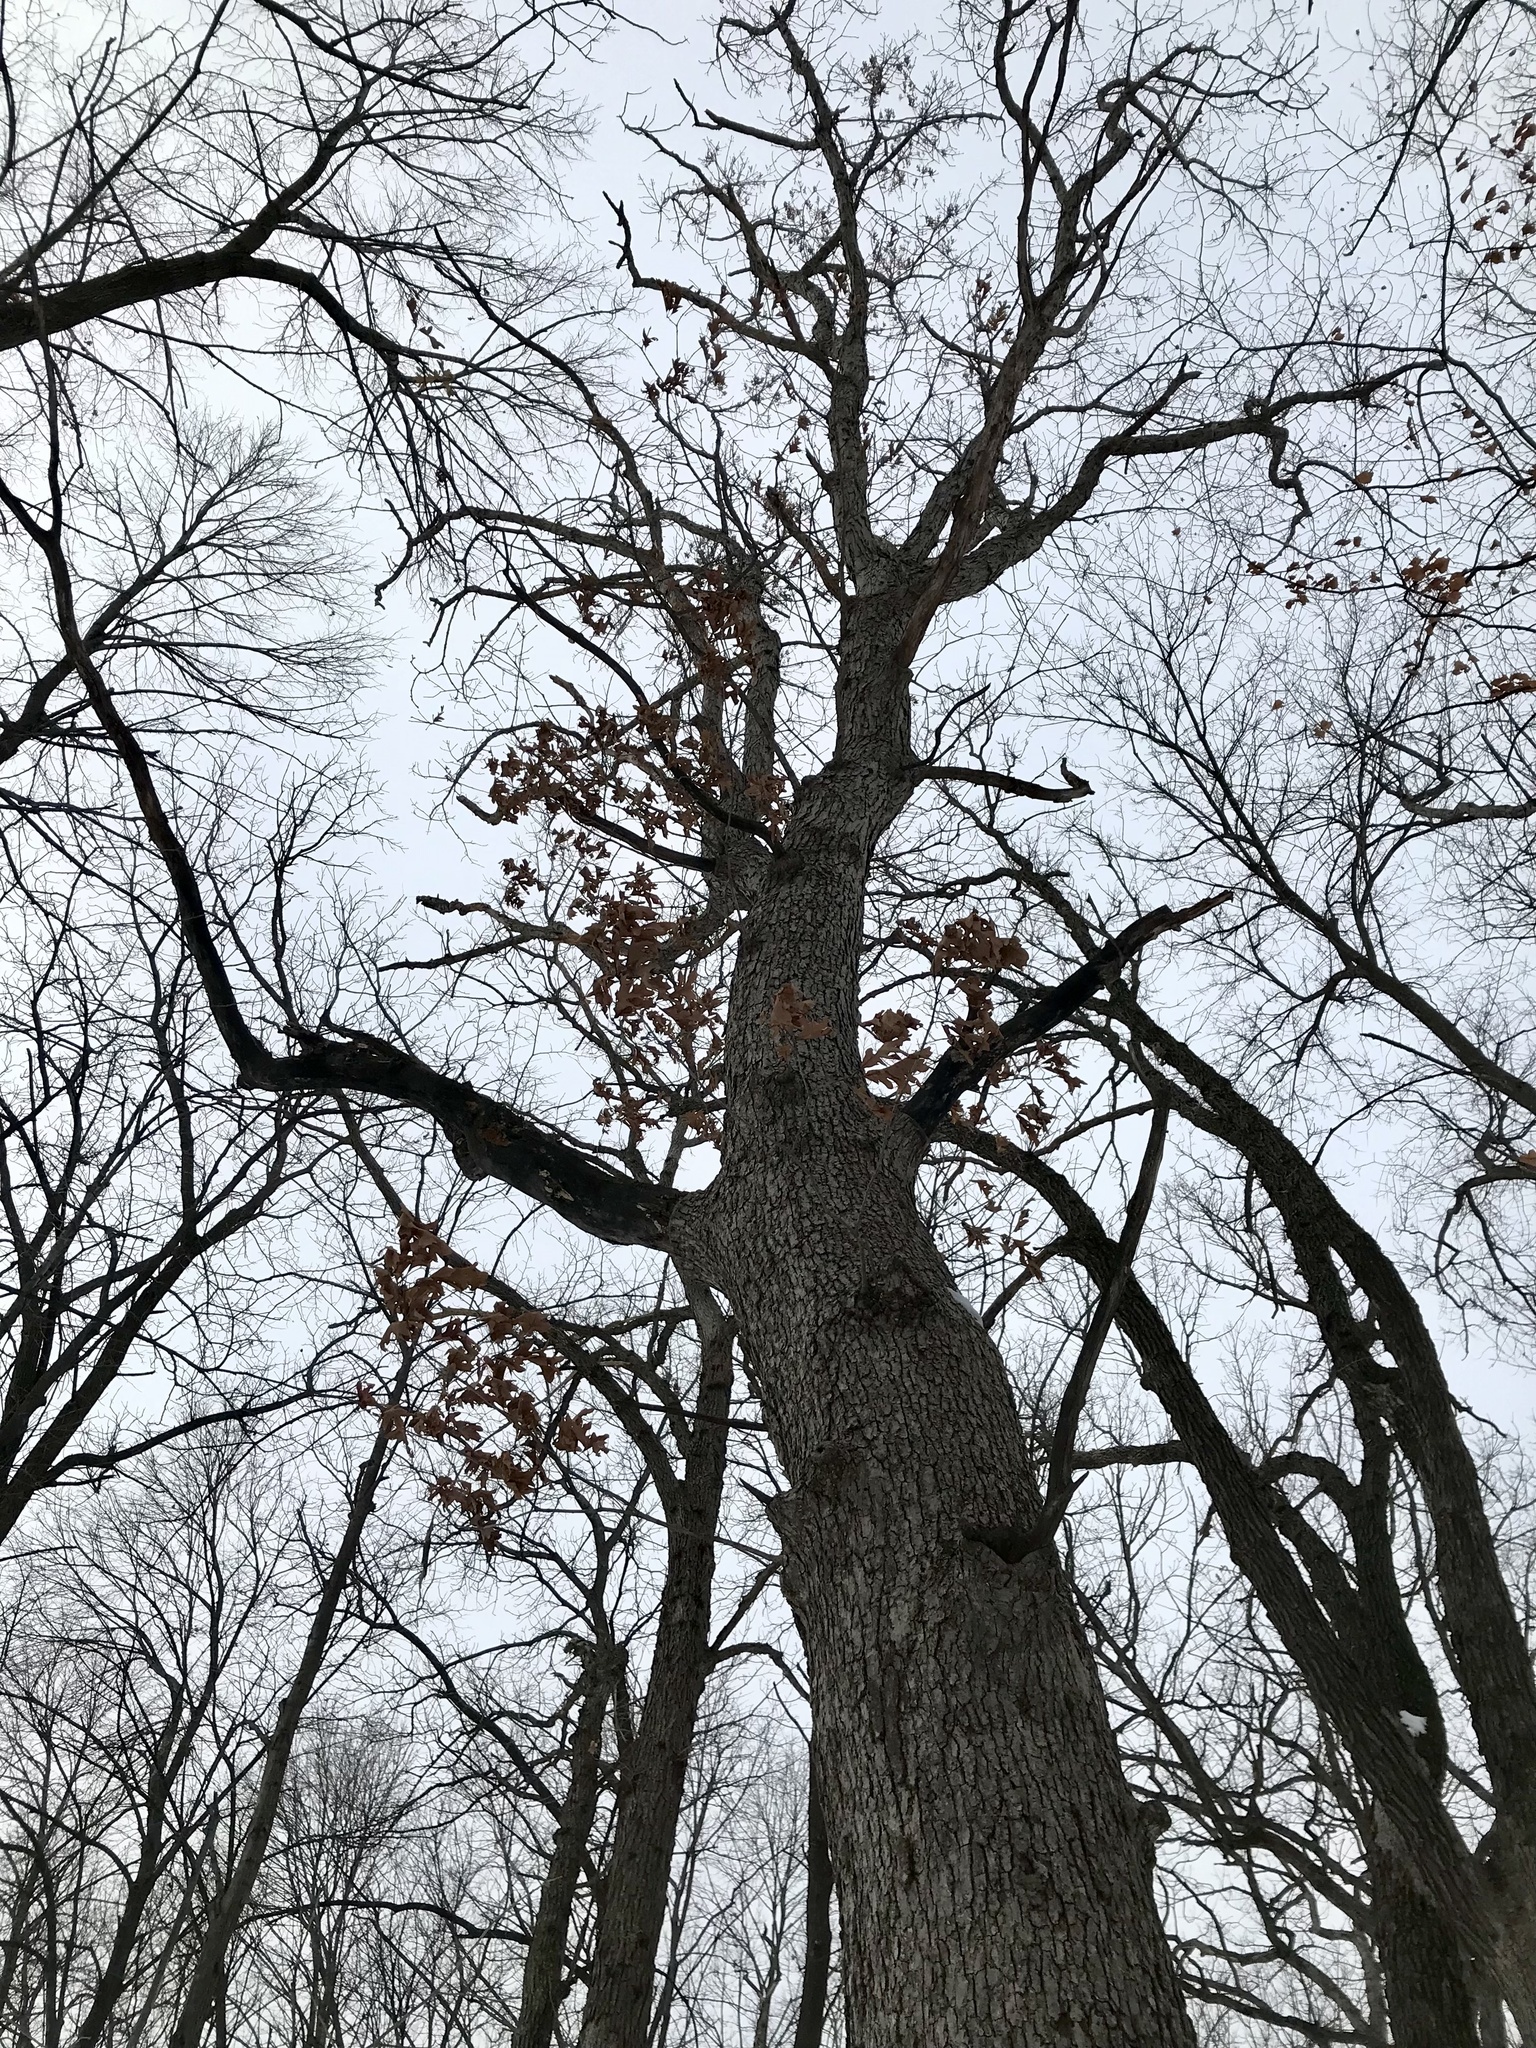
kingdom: Plantae
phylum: Tracheophyta
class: Magnoliopsida
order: Fagales
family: Fagaceae
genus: Quercus
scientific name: Quercus alba
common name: White oak
